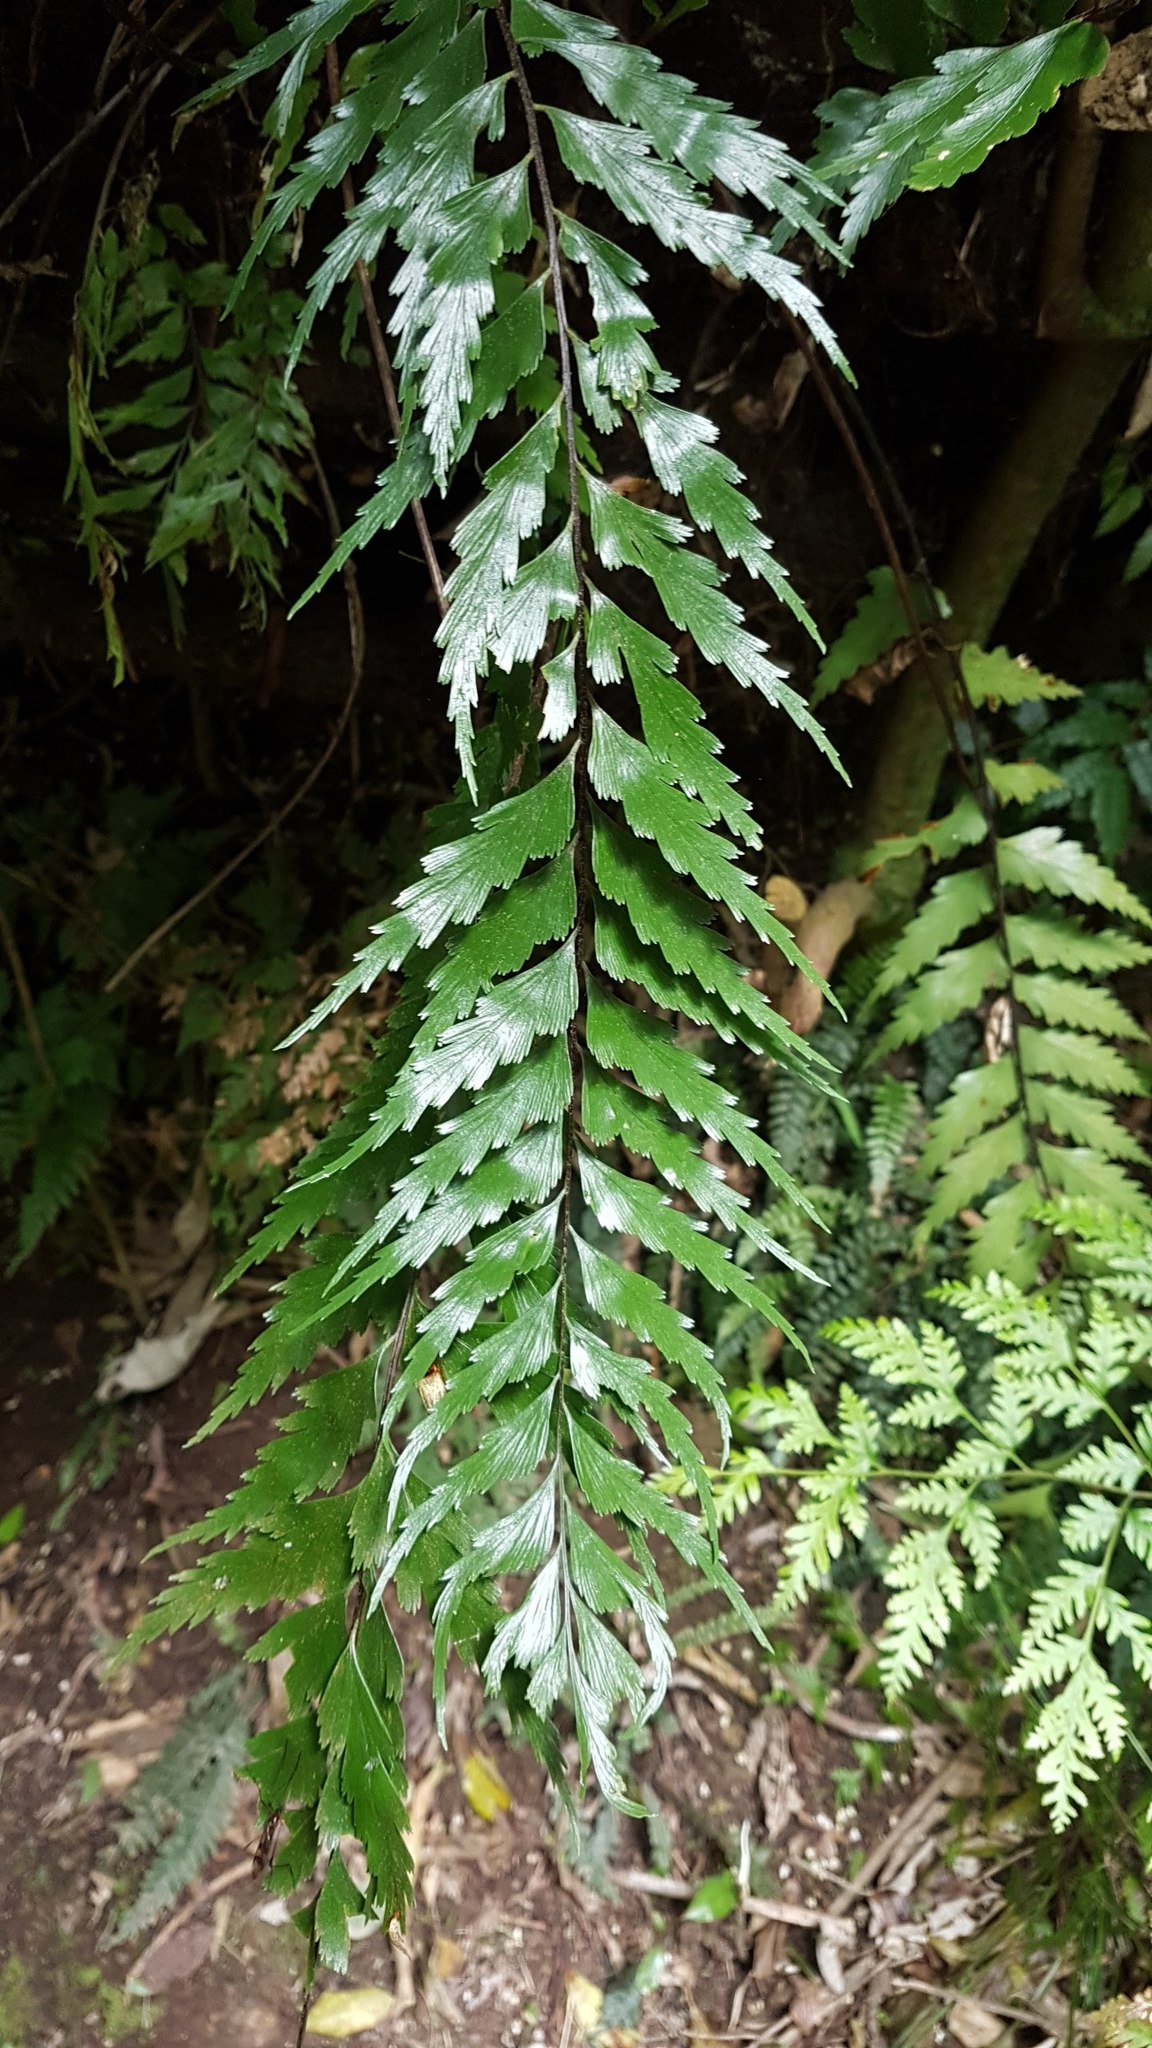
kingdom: Plantae
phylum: Tracheophyta
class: Polypodiopsida
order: Polypodiales
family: Aspleniaceae
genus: Asplenium
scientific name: Asplenium polyodon
